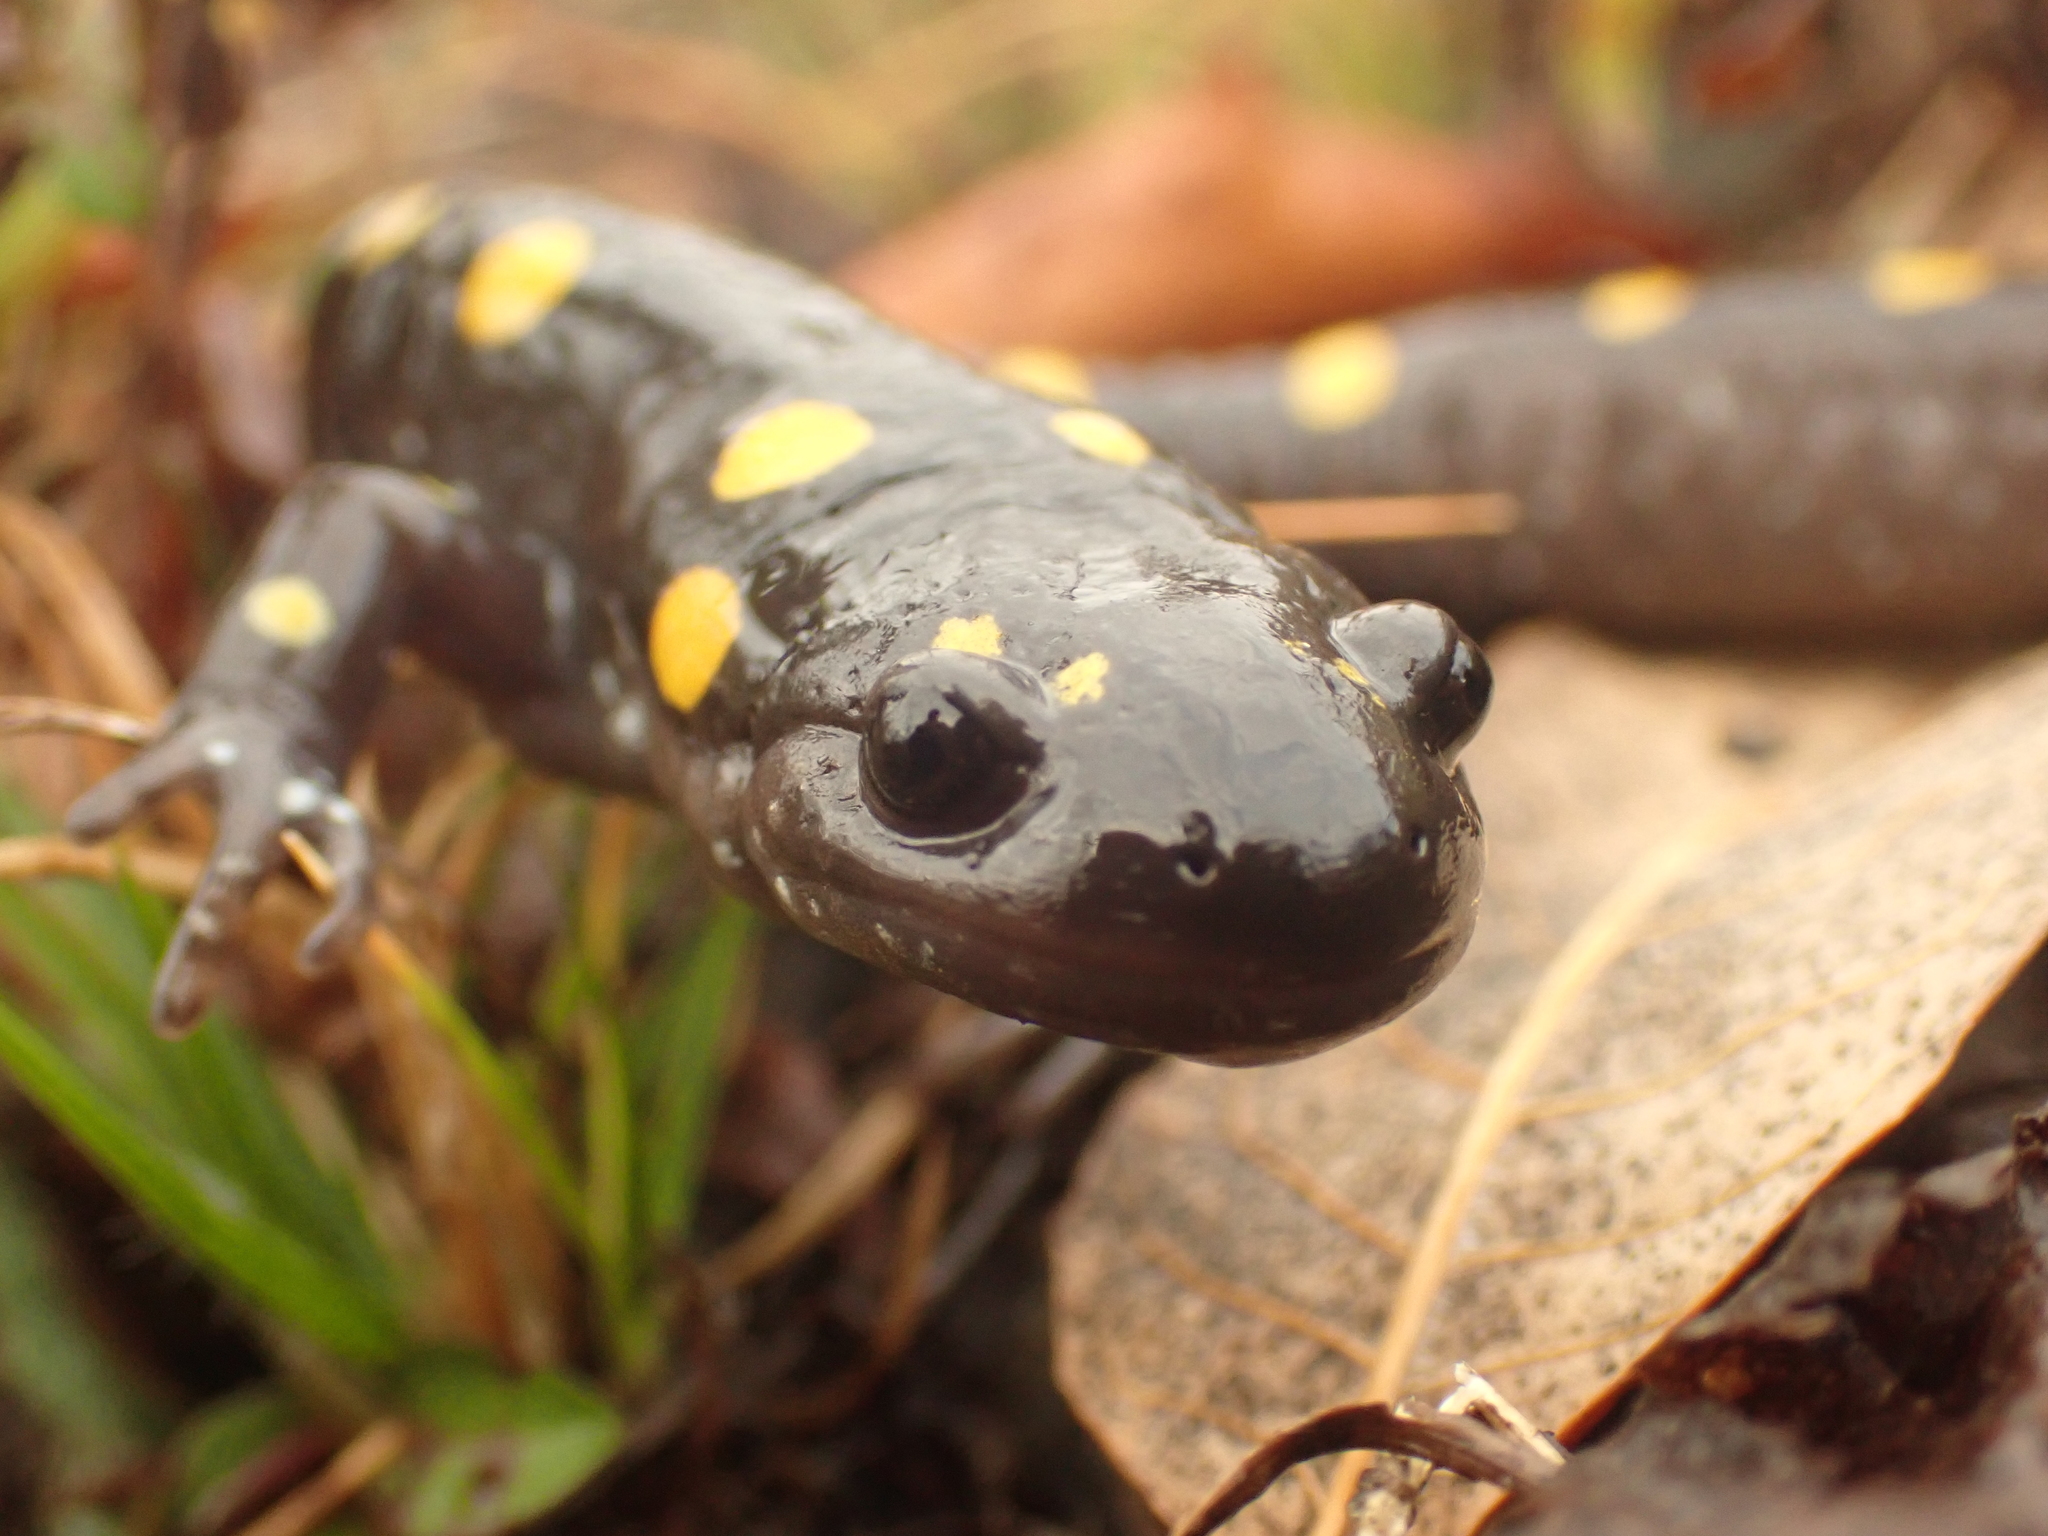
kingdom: Animalia
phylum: Chordata
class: Amphibia
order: Caudata
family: Ambystomatidae
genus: Ambystoma
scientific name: Ambystoma maculatum
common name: Spotted salamander
